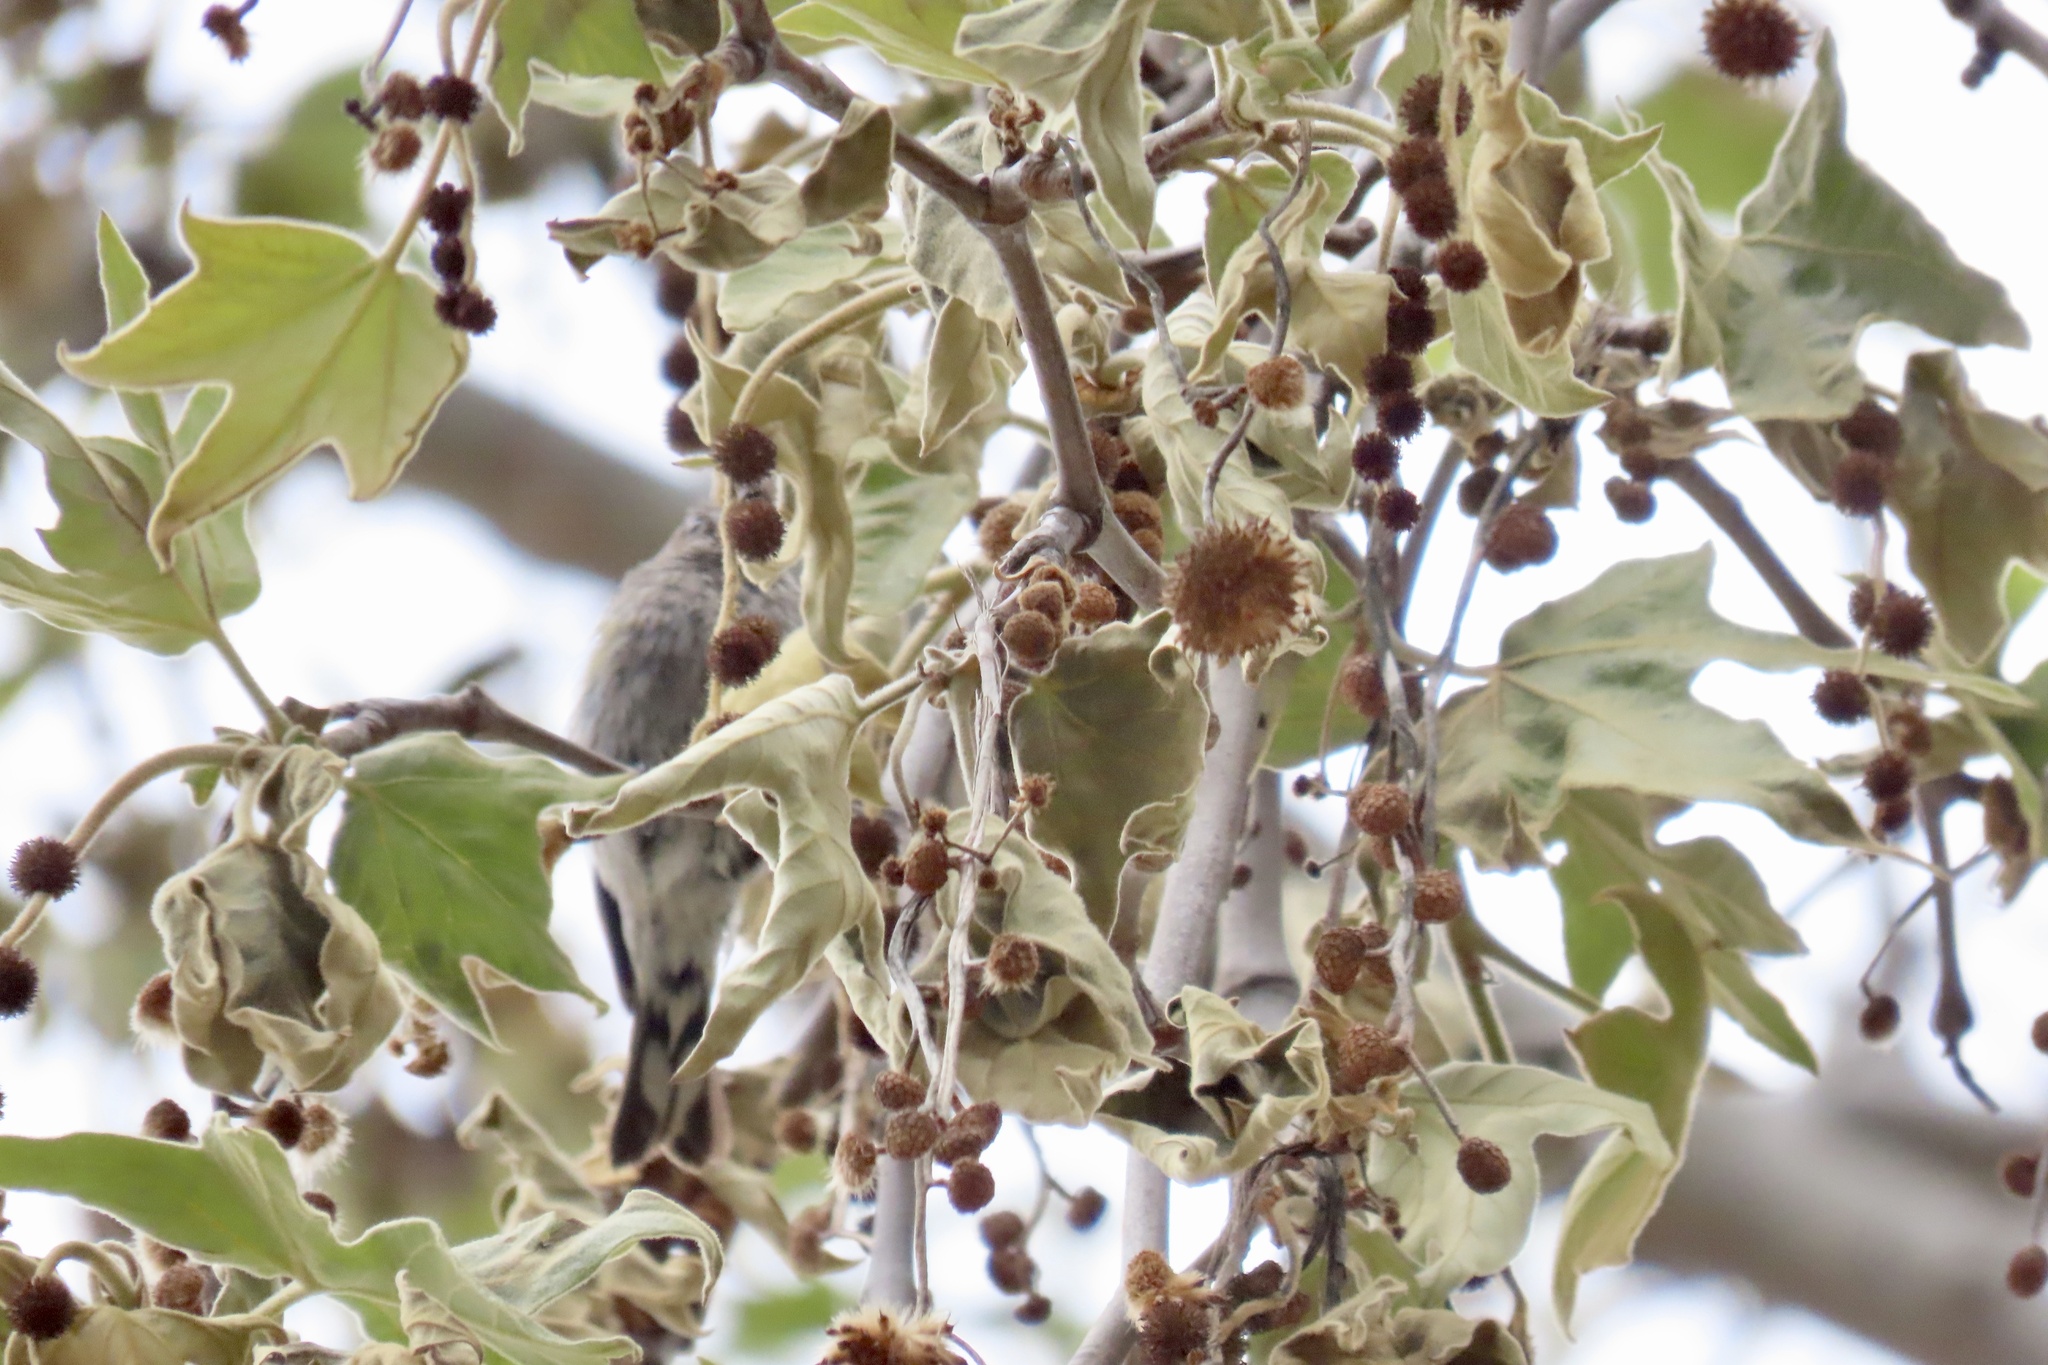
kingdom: Animalia
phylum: Chordata
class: Aves
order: Passeriformes
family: Parulidae
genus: Setophaga
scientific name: Setophaga coronata
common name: Myrtle warbler
